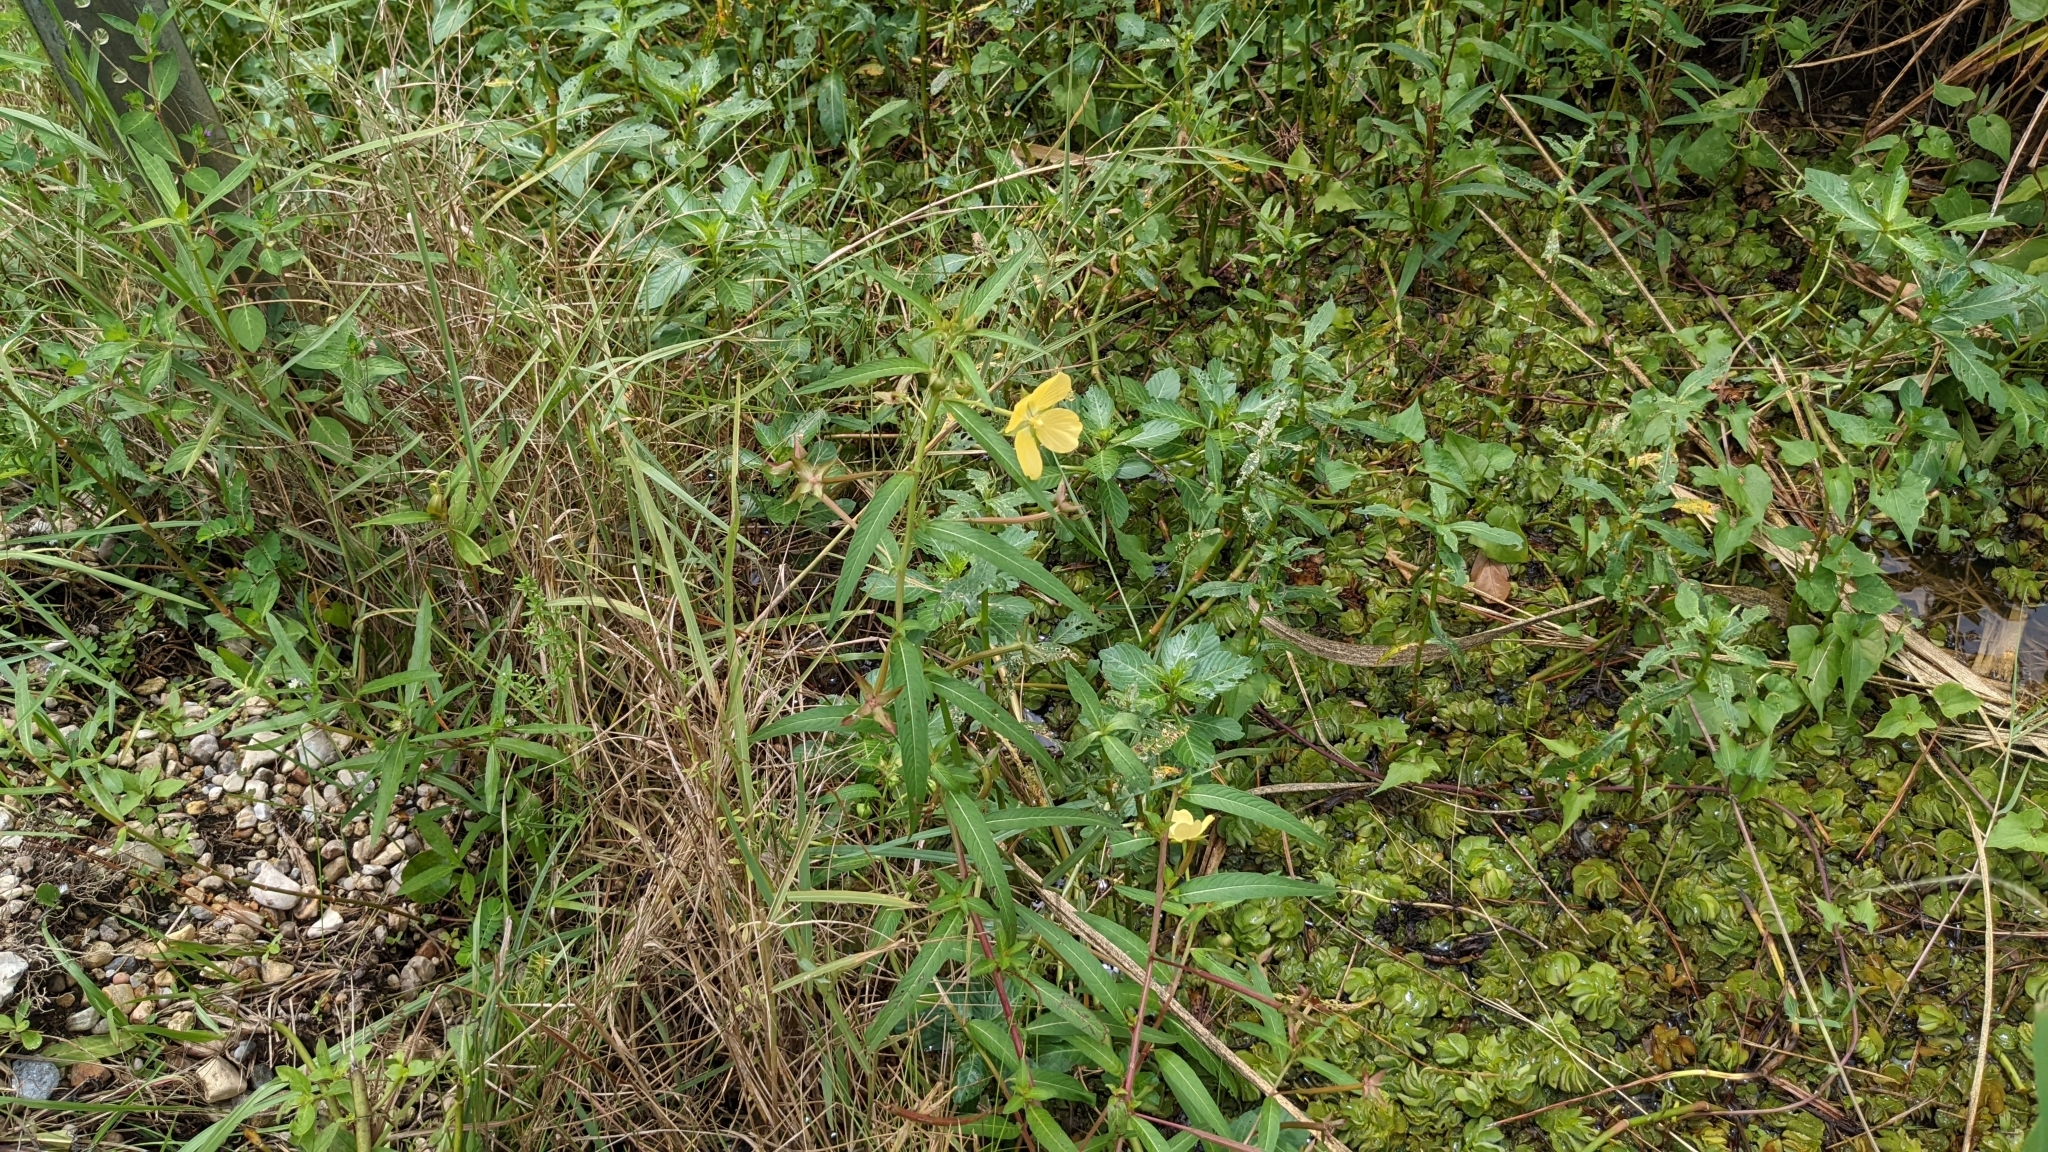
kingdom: Plantae
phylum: Tracheophyta
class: Magnoliopsida
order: Myrtales
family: Onagraceae
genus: Ludwigia
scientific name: Ludwigia octovalvis
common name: Water-primrose
